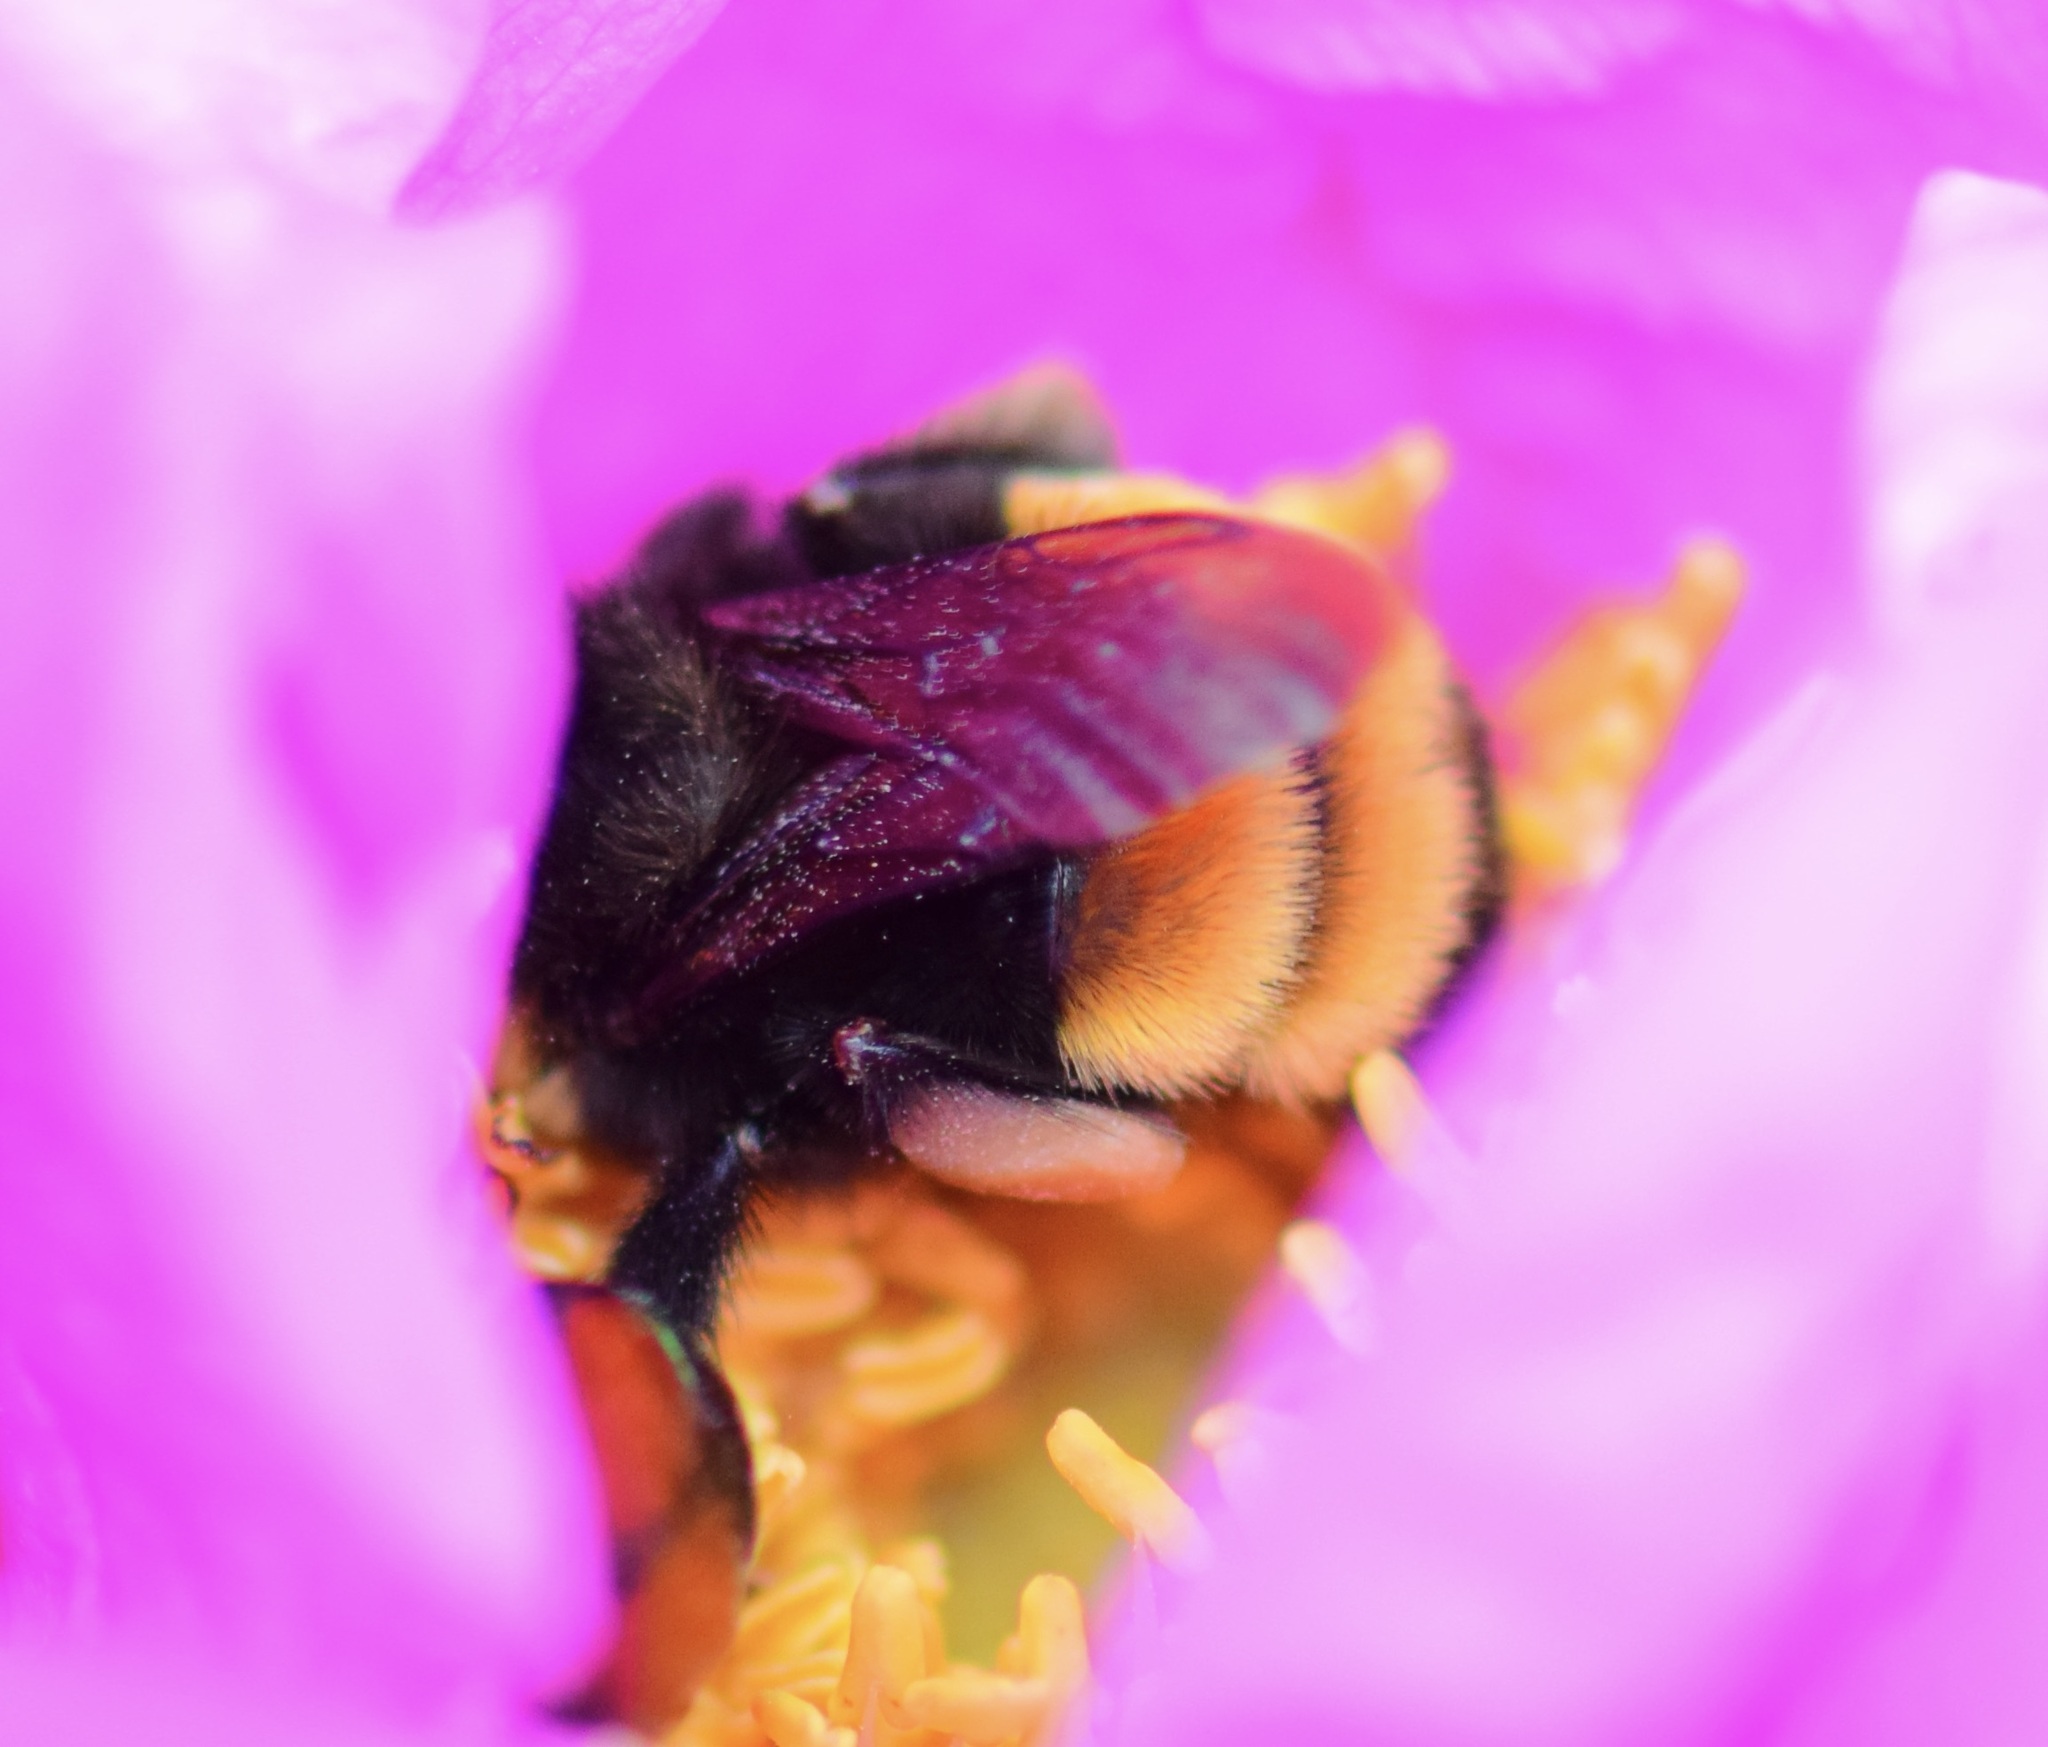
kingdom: Animalia
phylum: Arthropoda
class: Insecta
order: Hymenoptera
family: Apidae
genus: Bombus
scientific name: Bombus terricola
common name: Yellow-banded bumble bee
